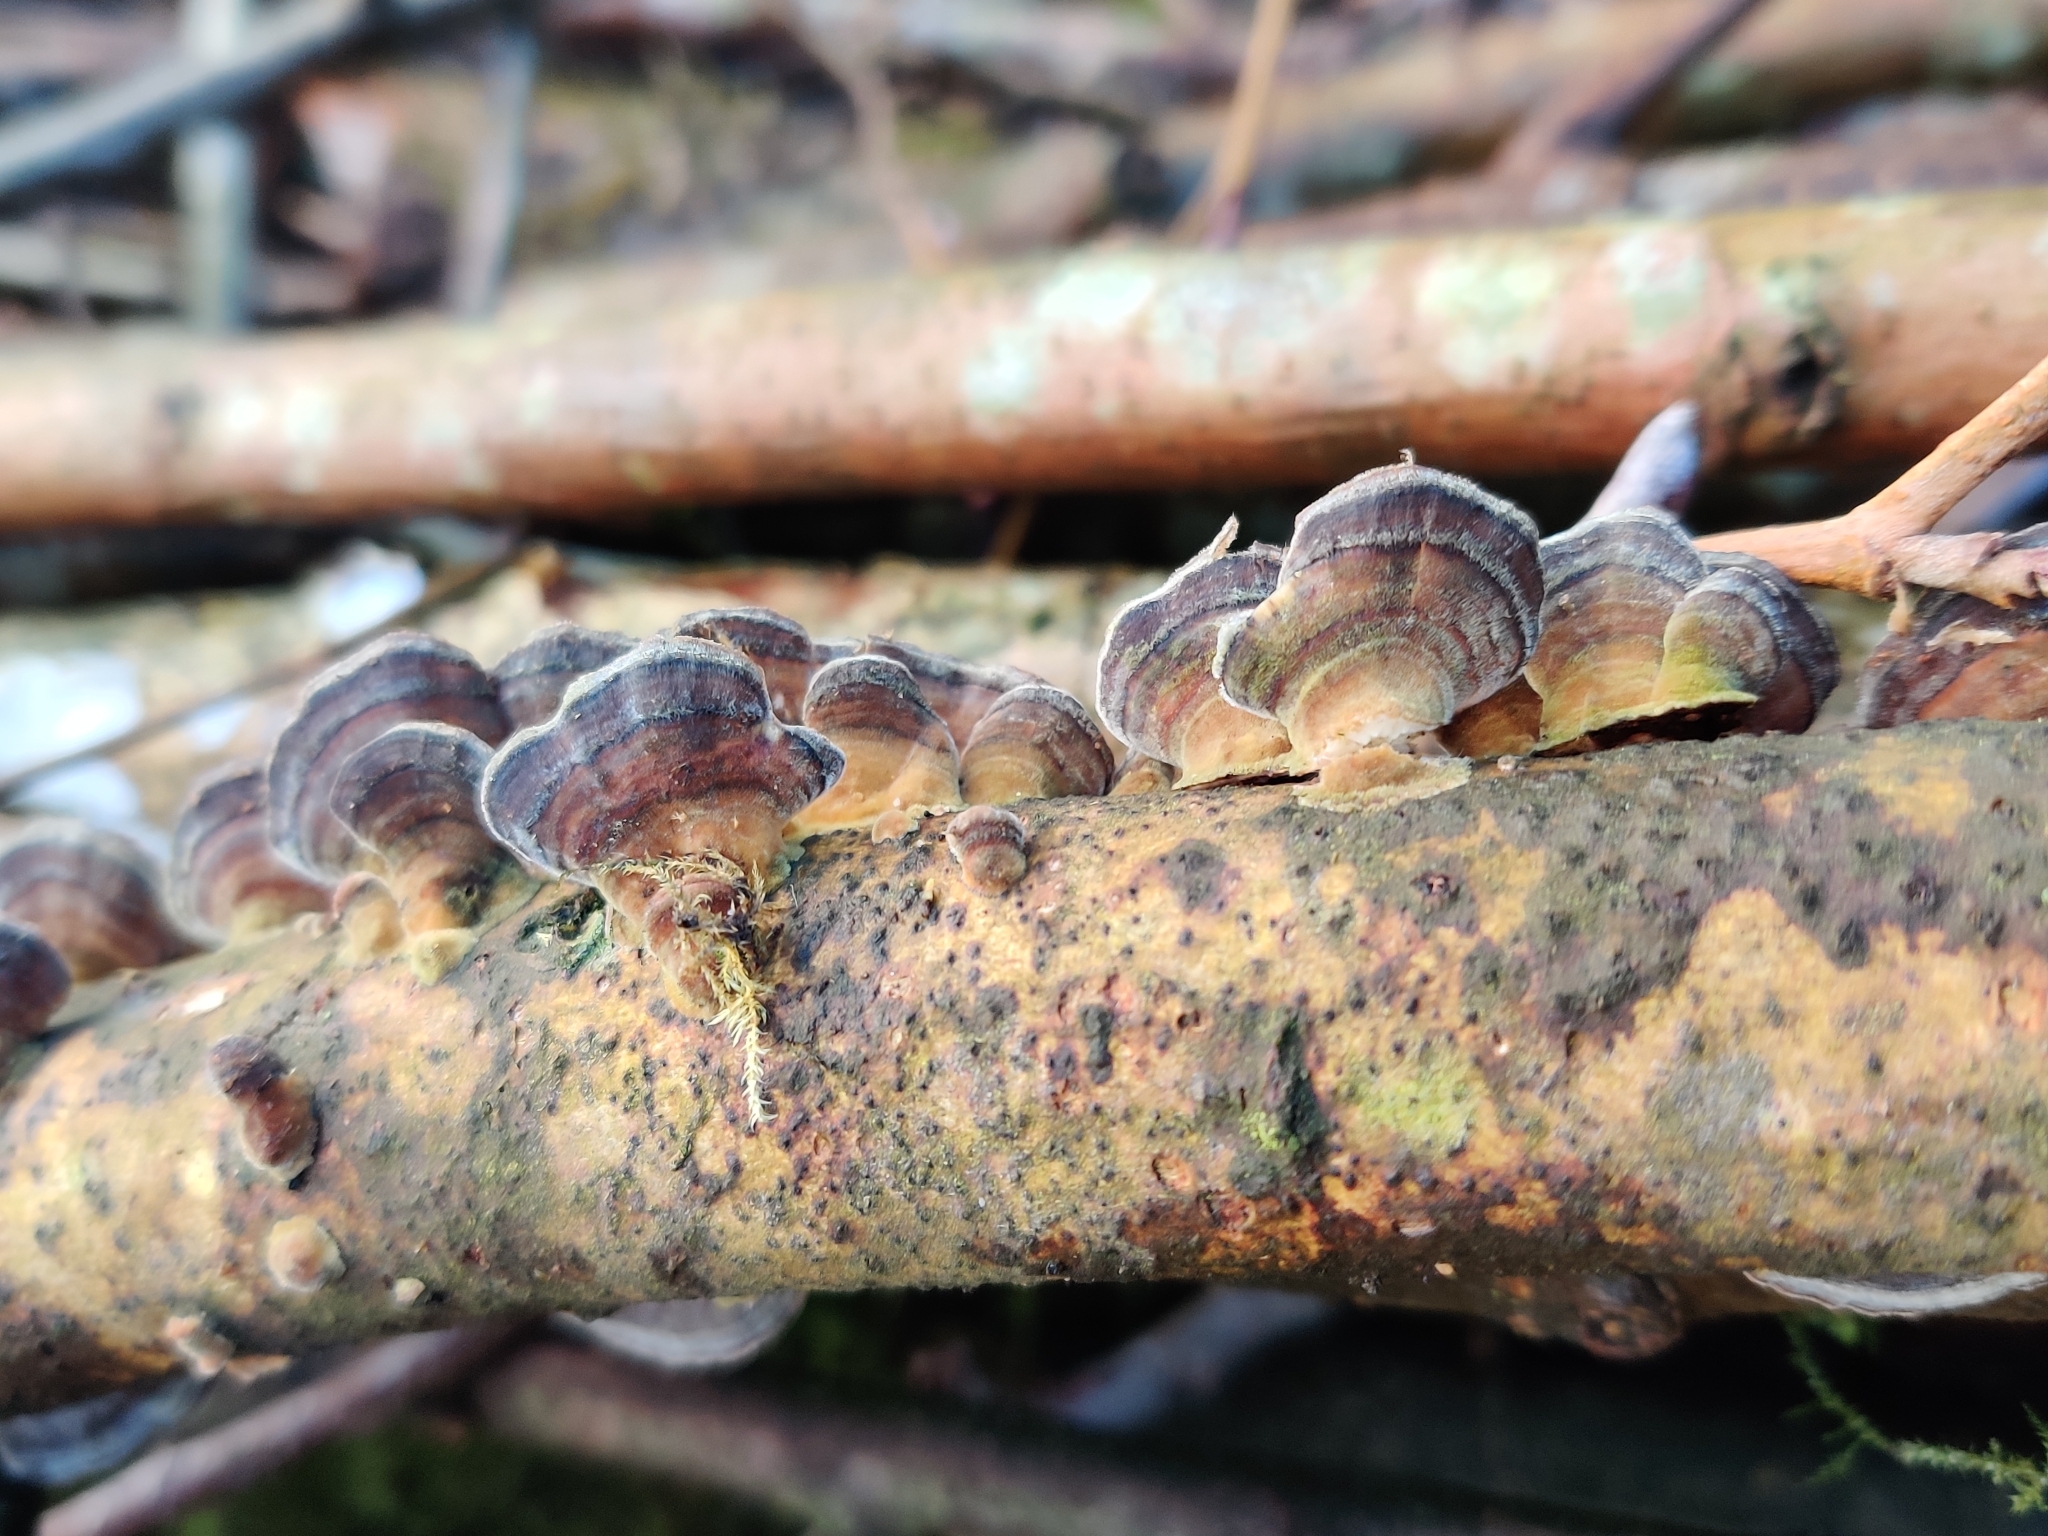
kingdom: Fungi
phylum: Basidiomycota
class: Agaricomycetes
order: Polyporales
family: Polyporaceae
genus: Trametes
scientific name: Trametes versicolor
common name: Turkeytail
